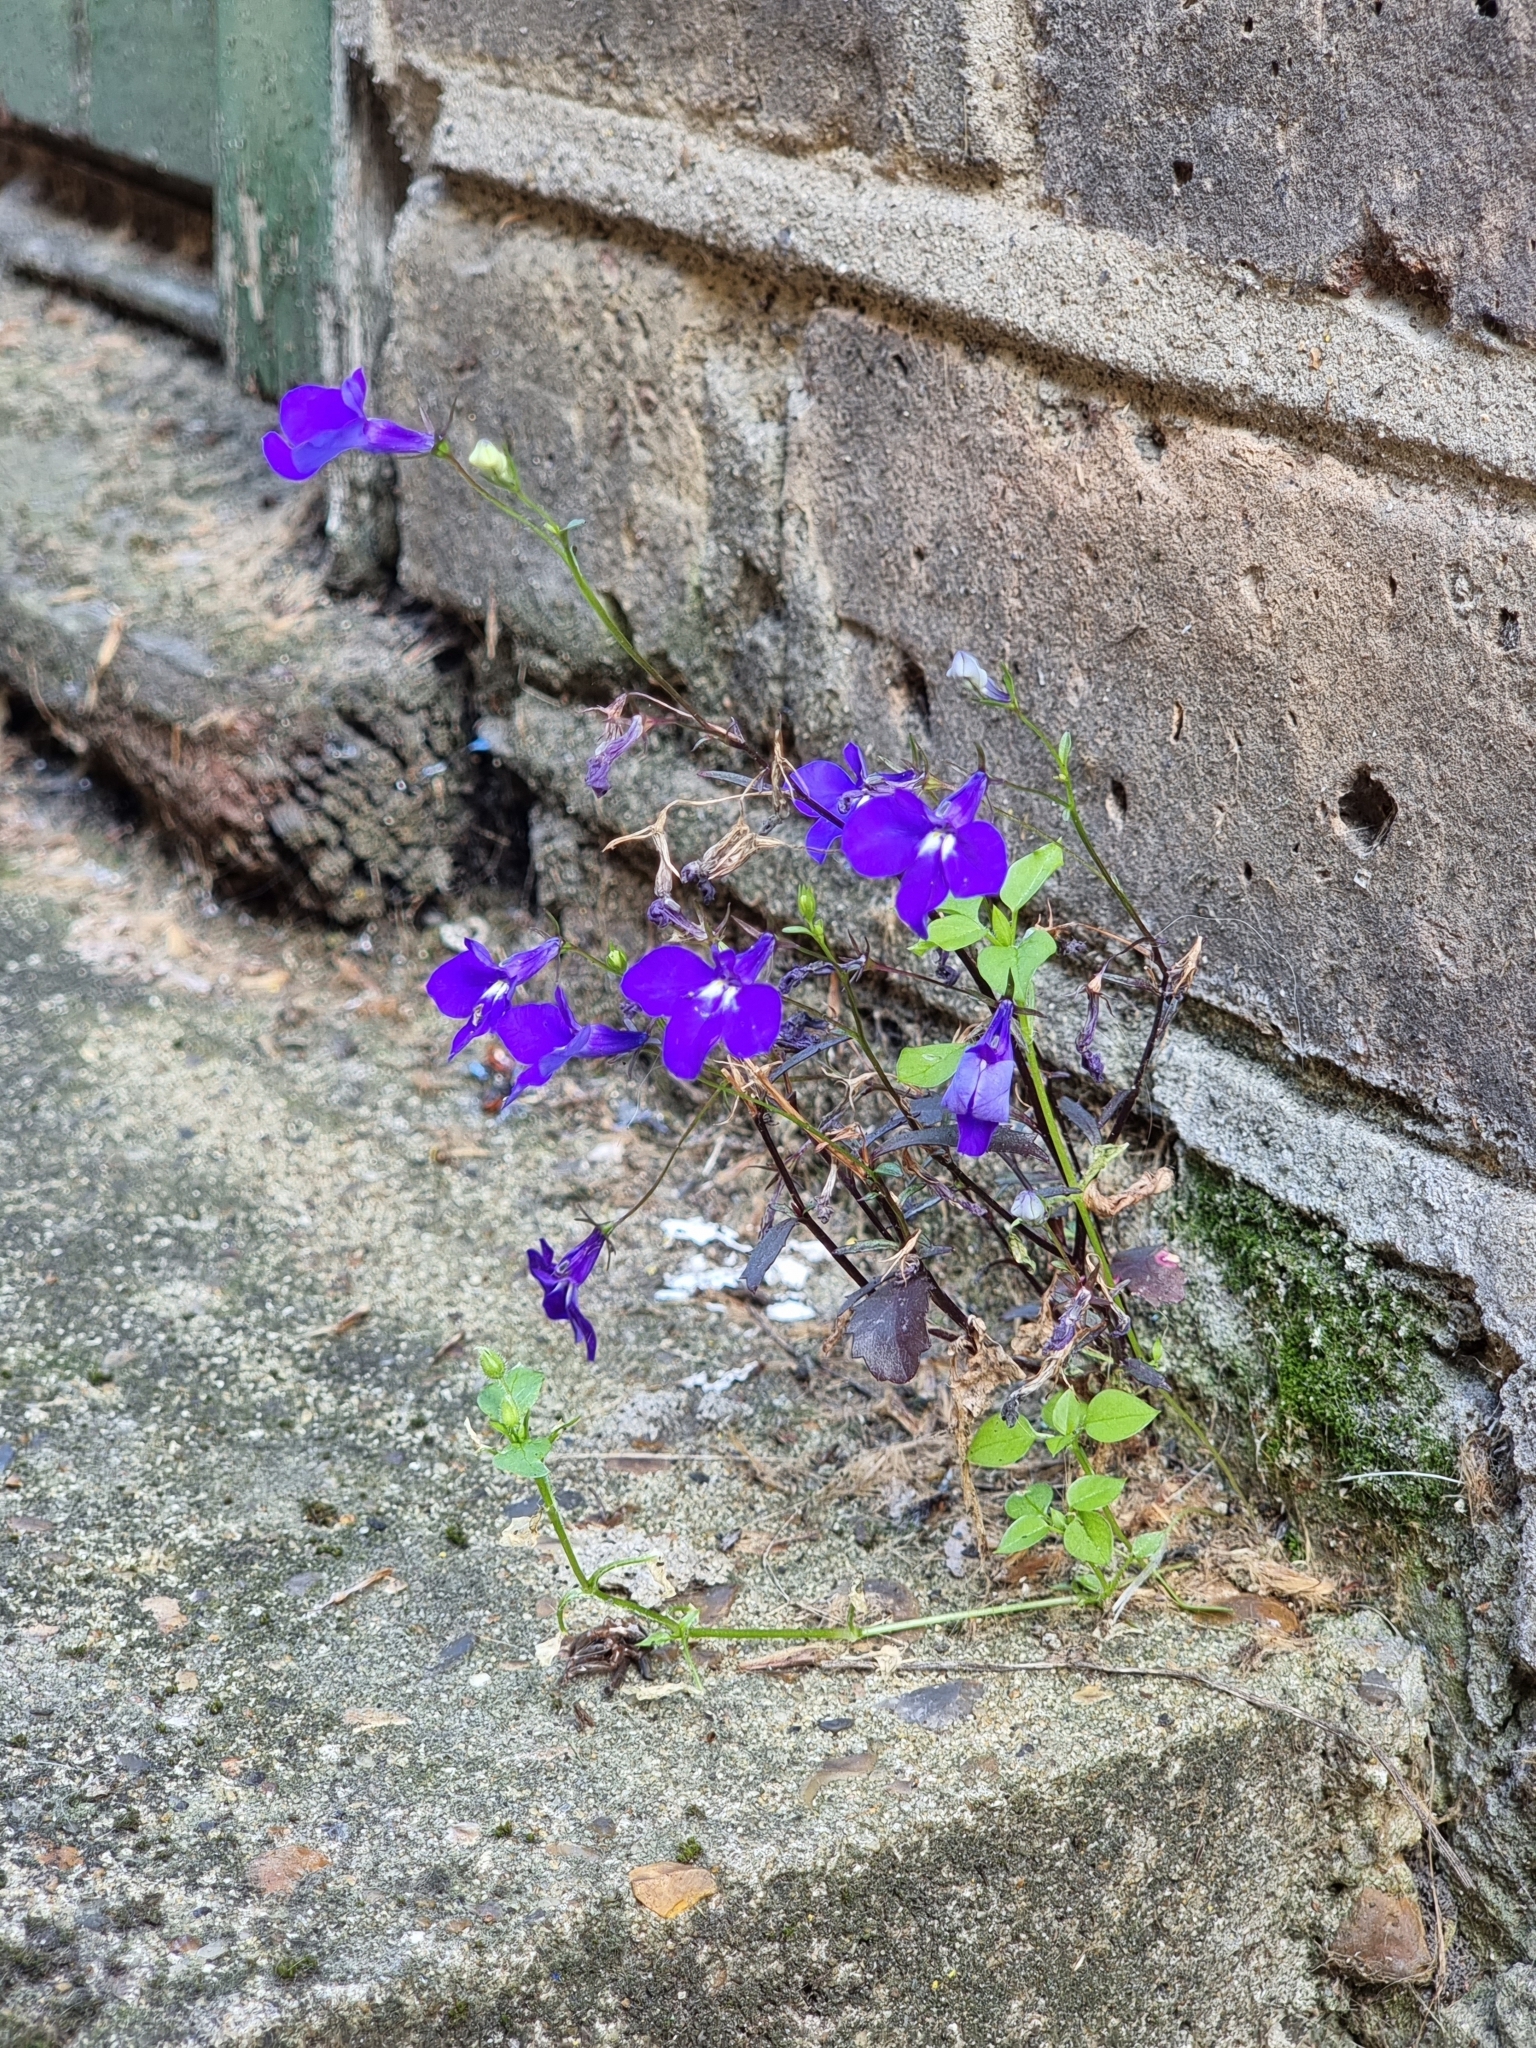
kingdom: Plantae
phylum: Tracheophyta
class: Magnoliopsida
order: Asterales
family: Campanulaceae
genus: Lobelia
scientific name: Lobelia erinus
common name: Edging lobelia
